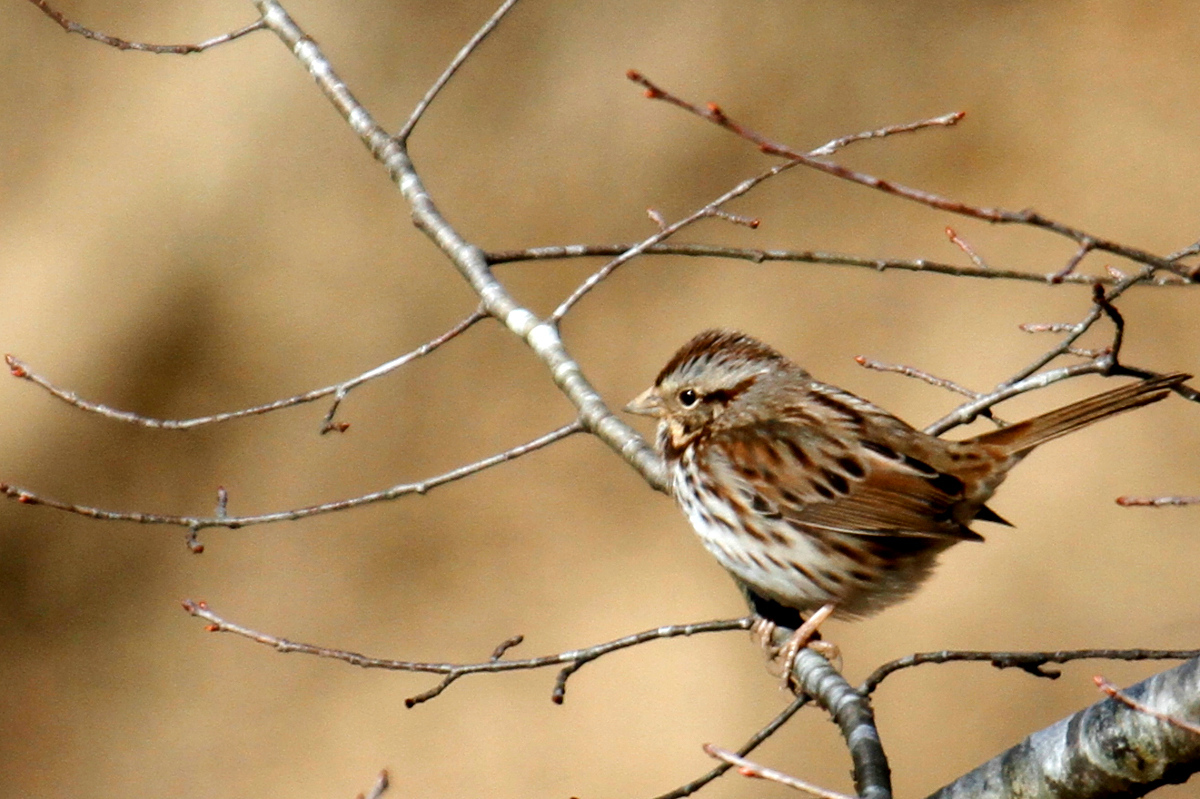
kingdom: Animalia
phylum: Chordata
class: Aves
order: Passeriformes
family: Passerellidae
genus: Melospiza
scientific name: Melospiza melodia
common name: Song sparrow
